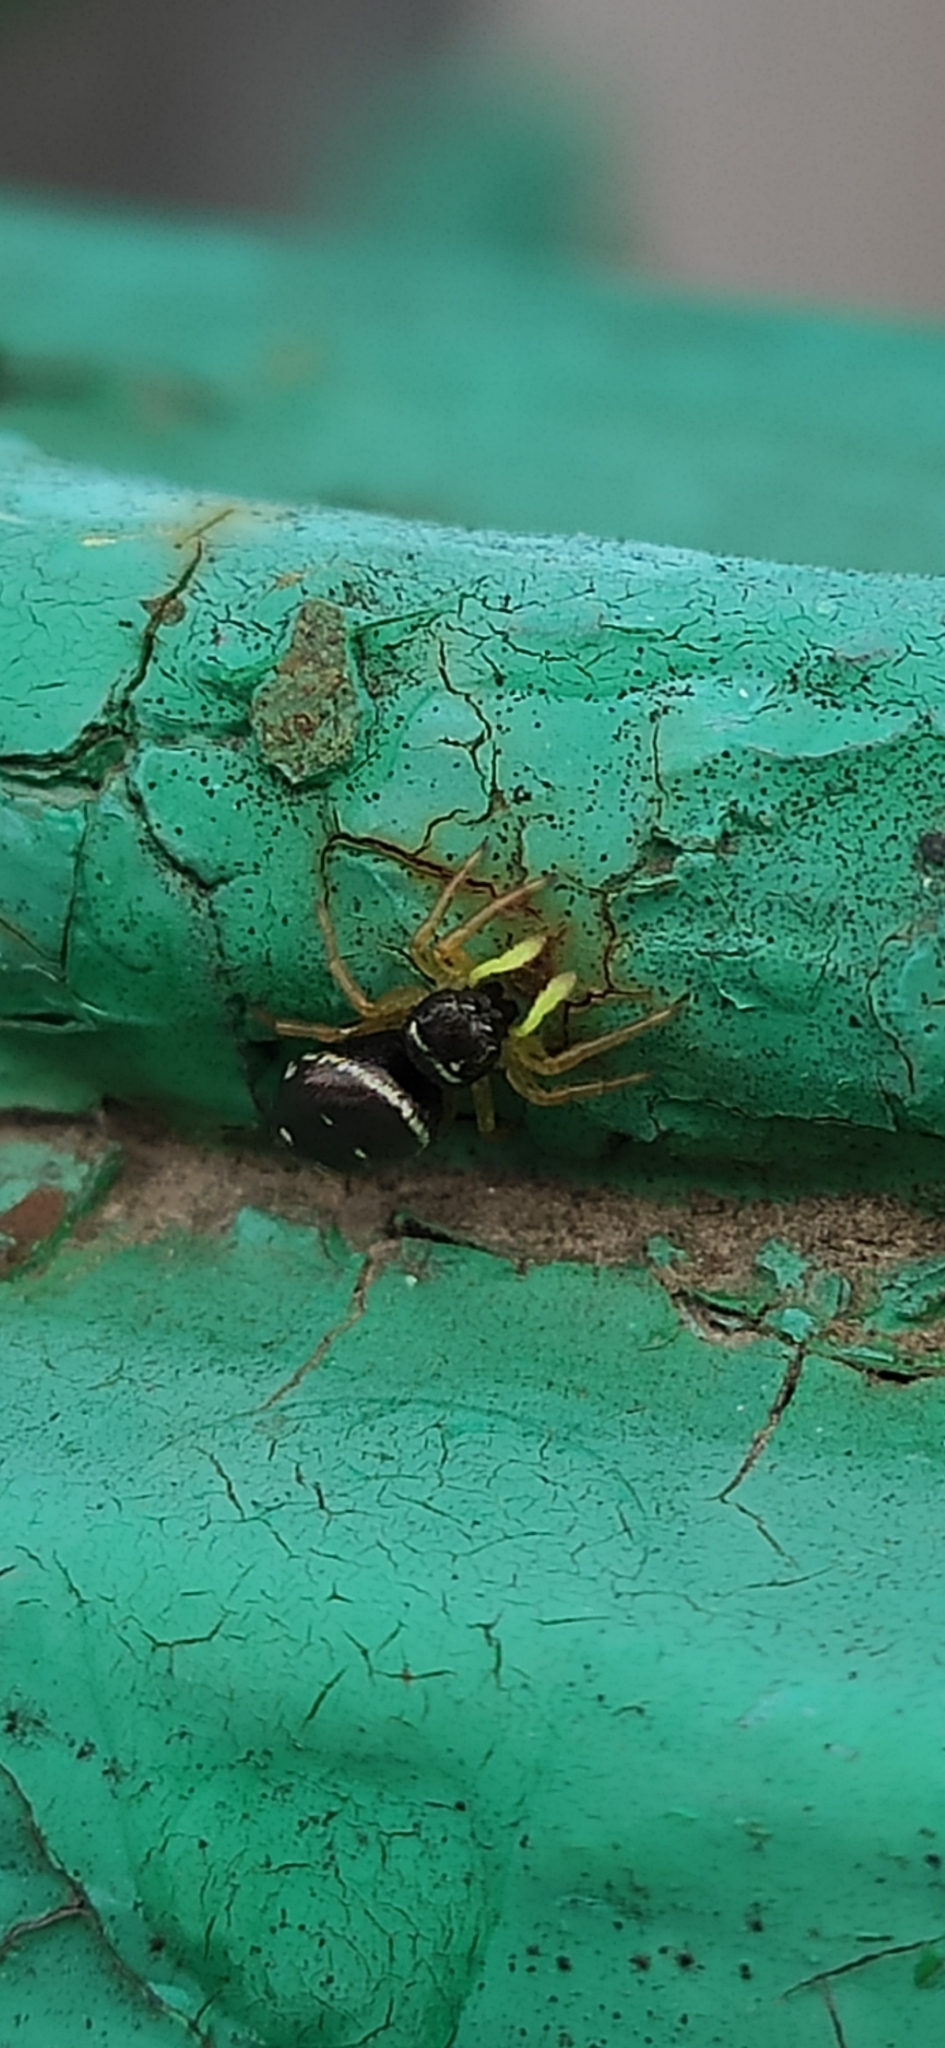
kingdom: Animalia
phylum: Arthropoda
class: Arachnida
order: Araneae
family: Salticidae
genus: Heliophanus
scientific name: Heliophanus cupreus
